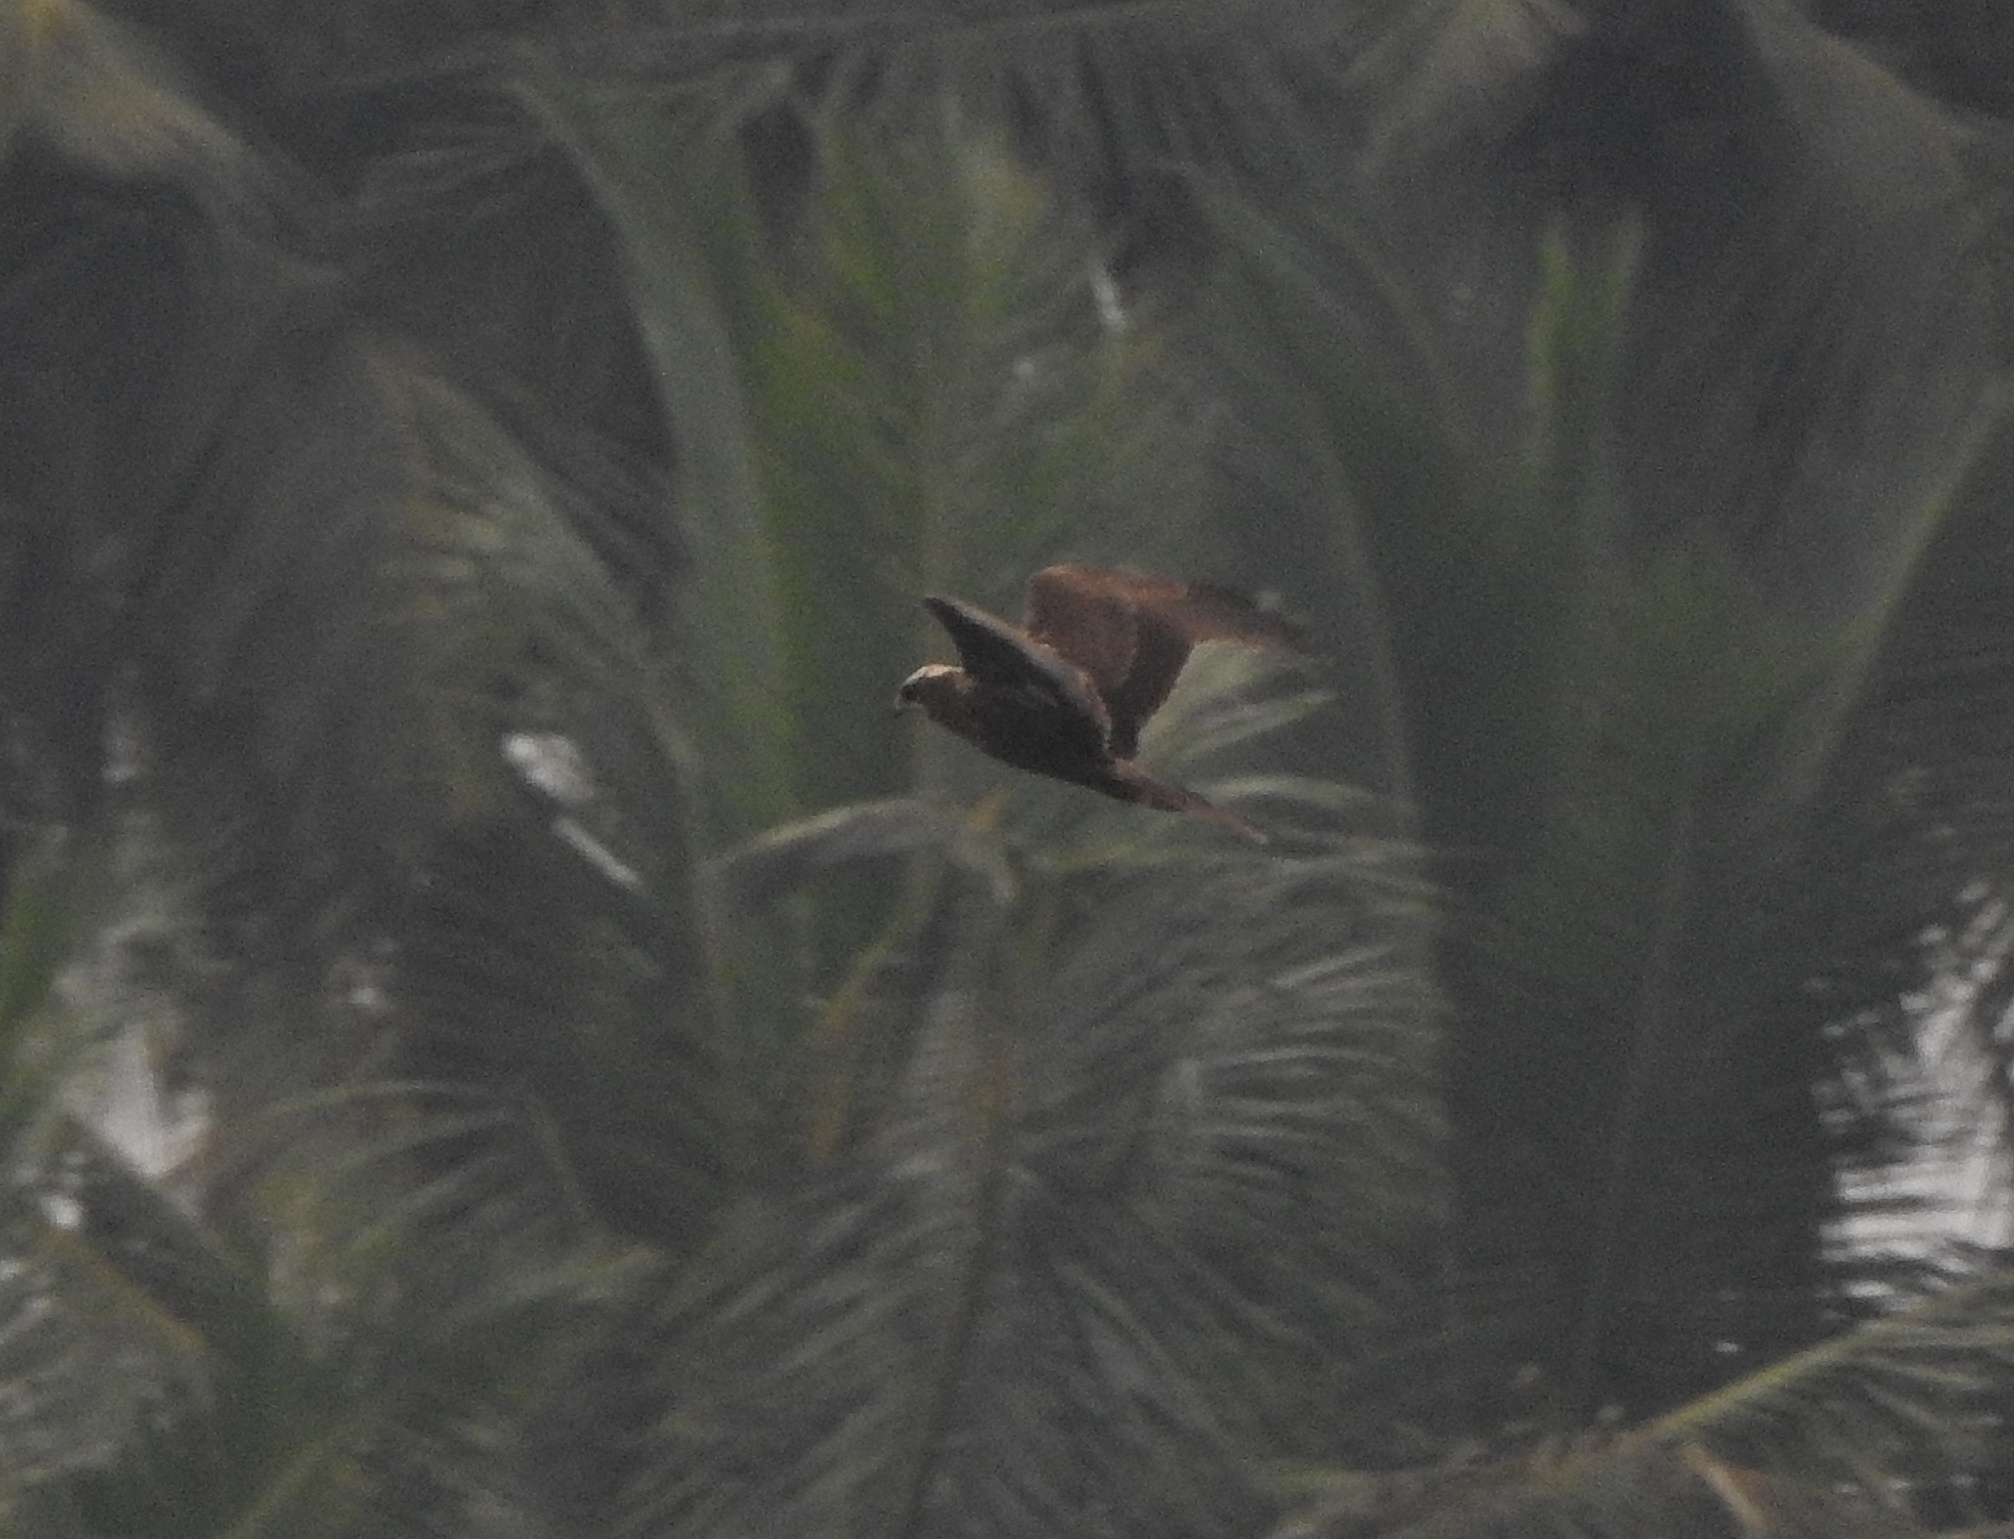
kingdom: Animalia
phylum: Chordata
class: Aves
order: Accipitriformes
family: Accipitridae
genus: Circus
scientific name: Circus aeruginosus
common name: Western marsh harrier
